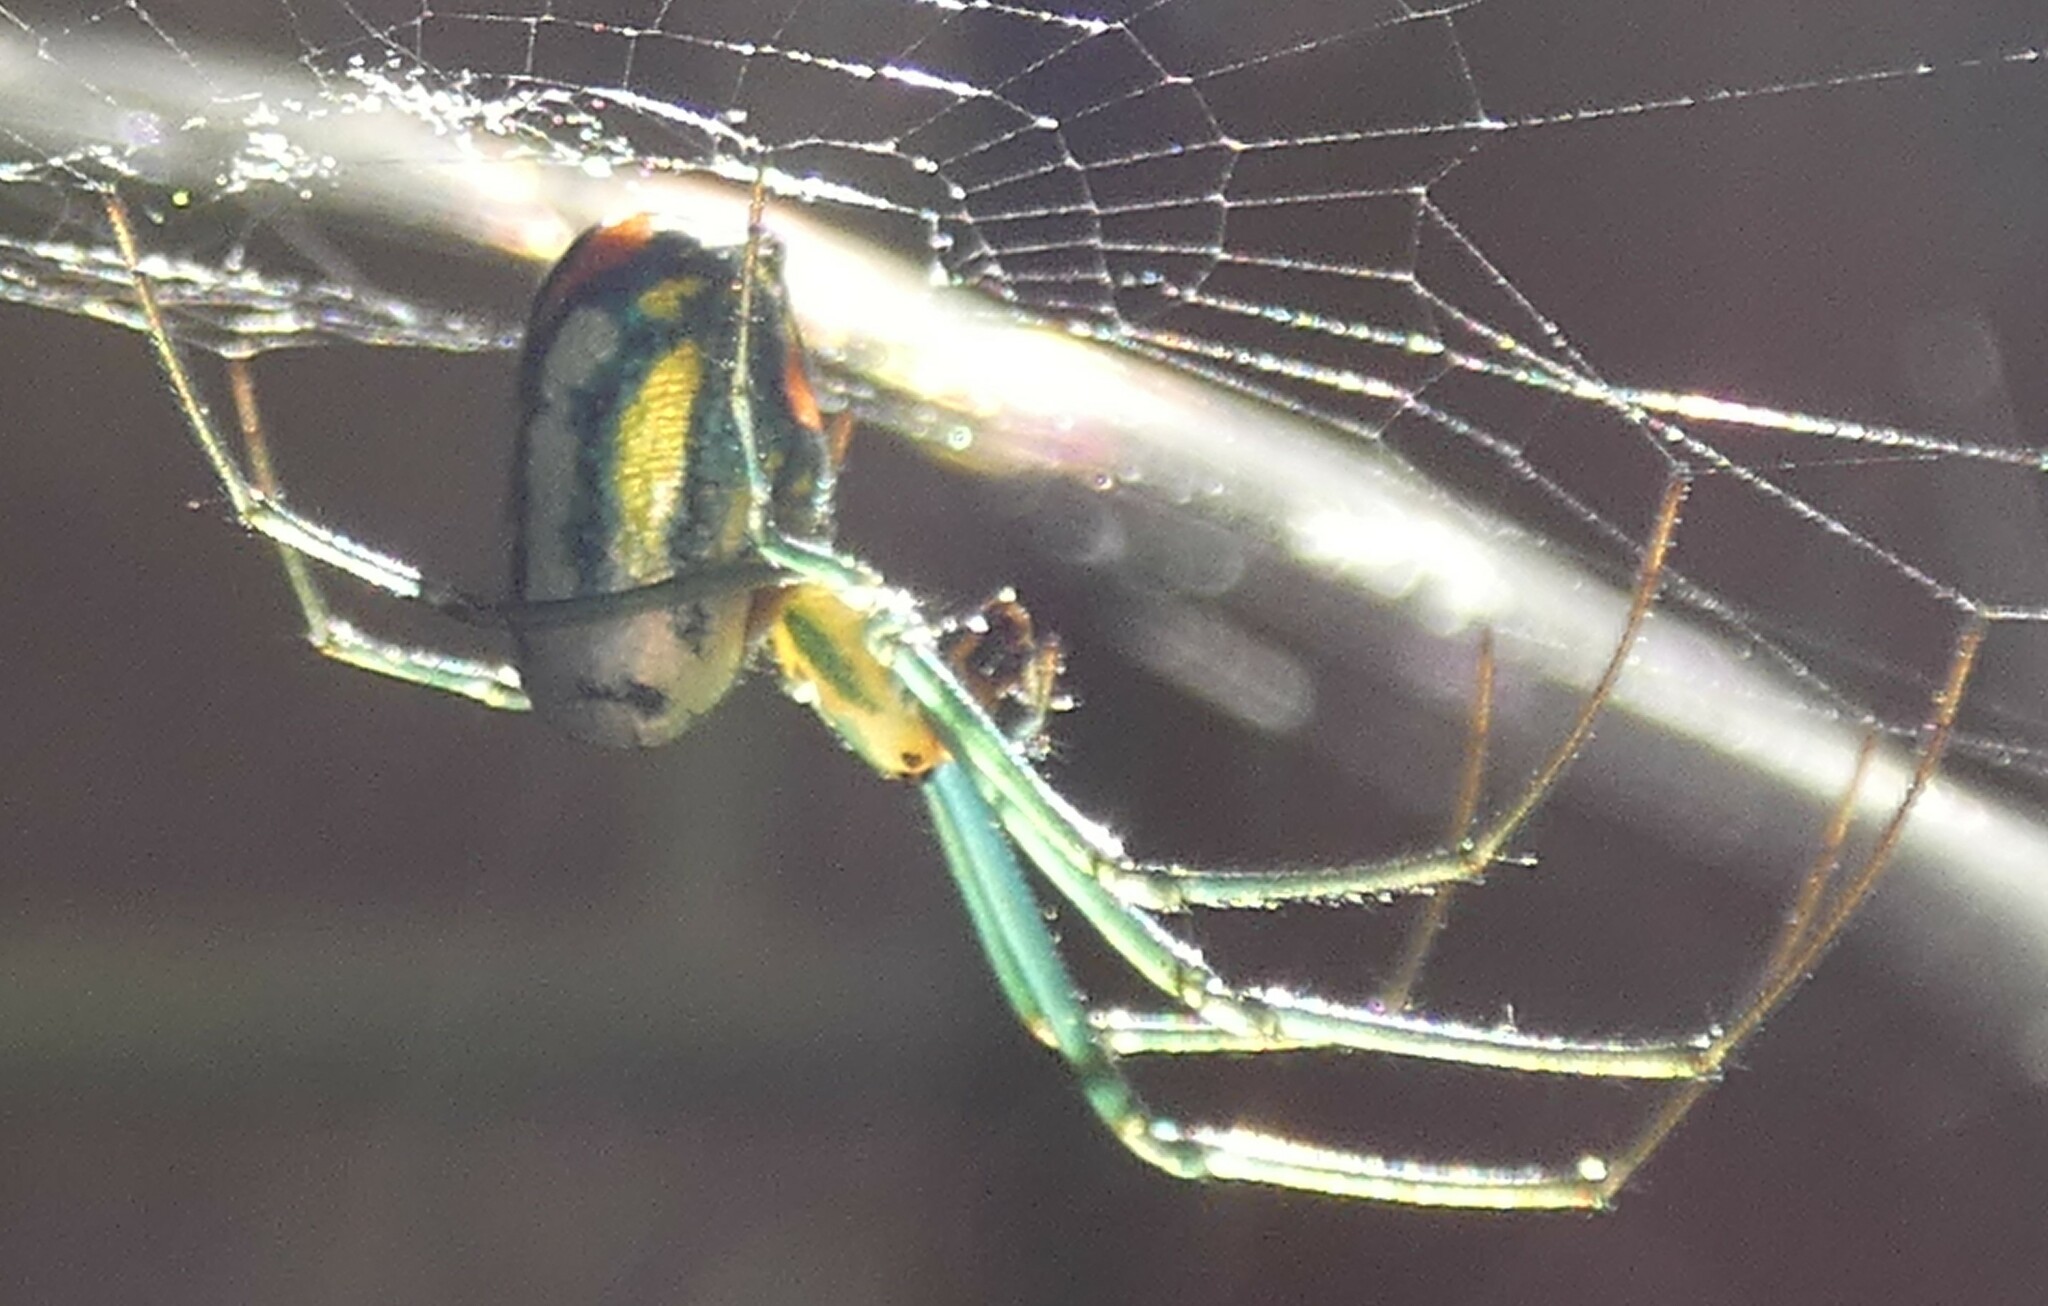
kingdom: Animalia
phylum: Arthropoda
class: Arachnida
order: Araneae
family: Tetragnathidae
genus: Leucauge
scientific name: Leucauge argyrobapta
